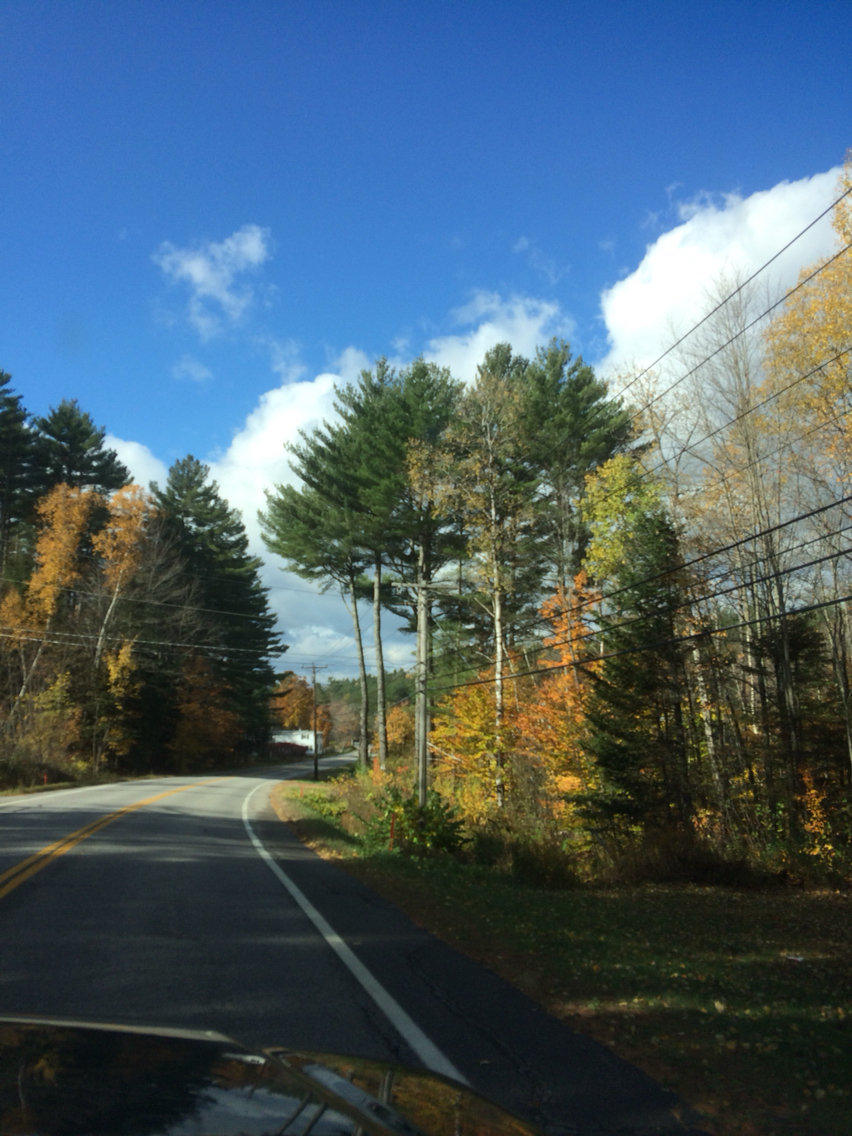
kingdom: Plantae
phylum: Tracheophyta
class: Pinopsida
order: Pinales
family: Pinaceae
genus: Pinus
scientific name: Pinus strobus
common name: Weymouth pine
